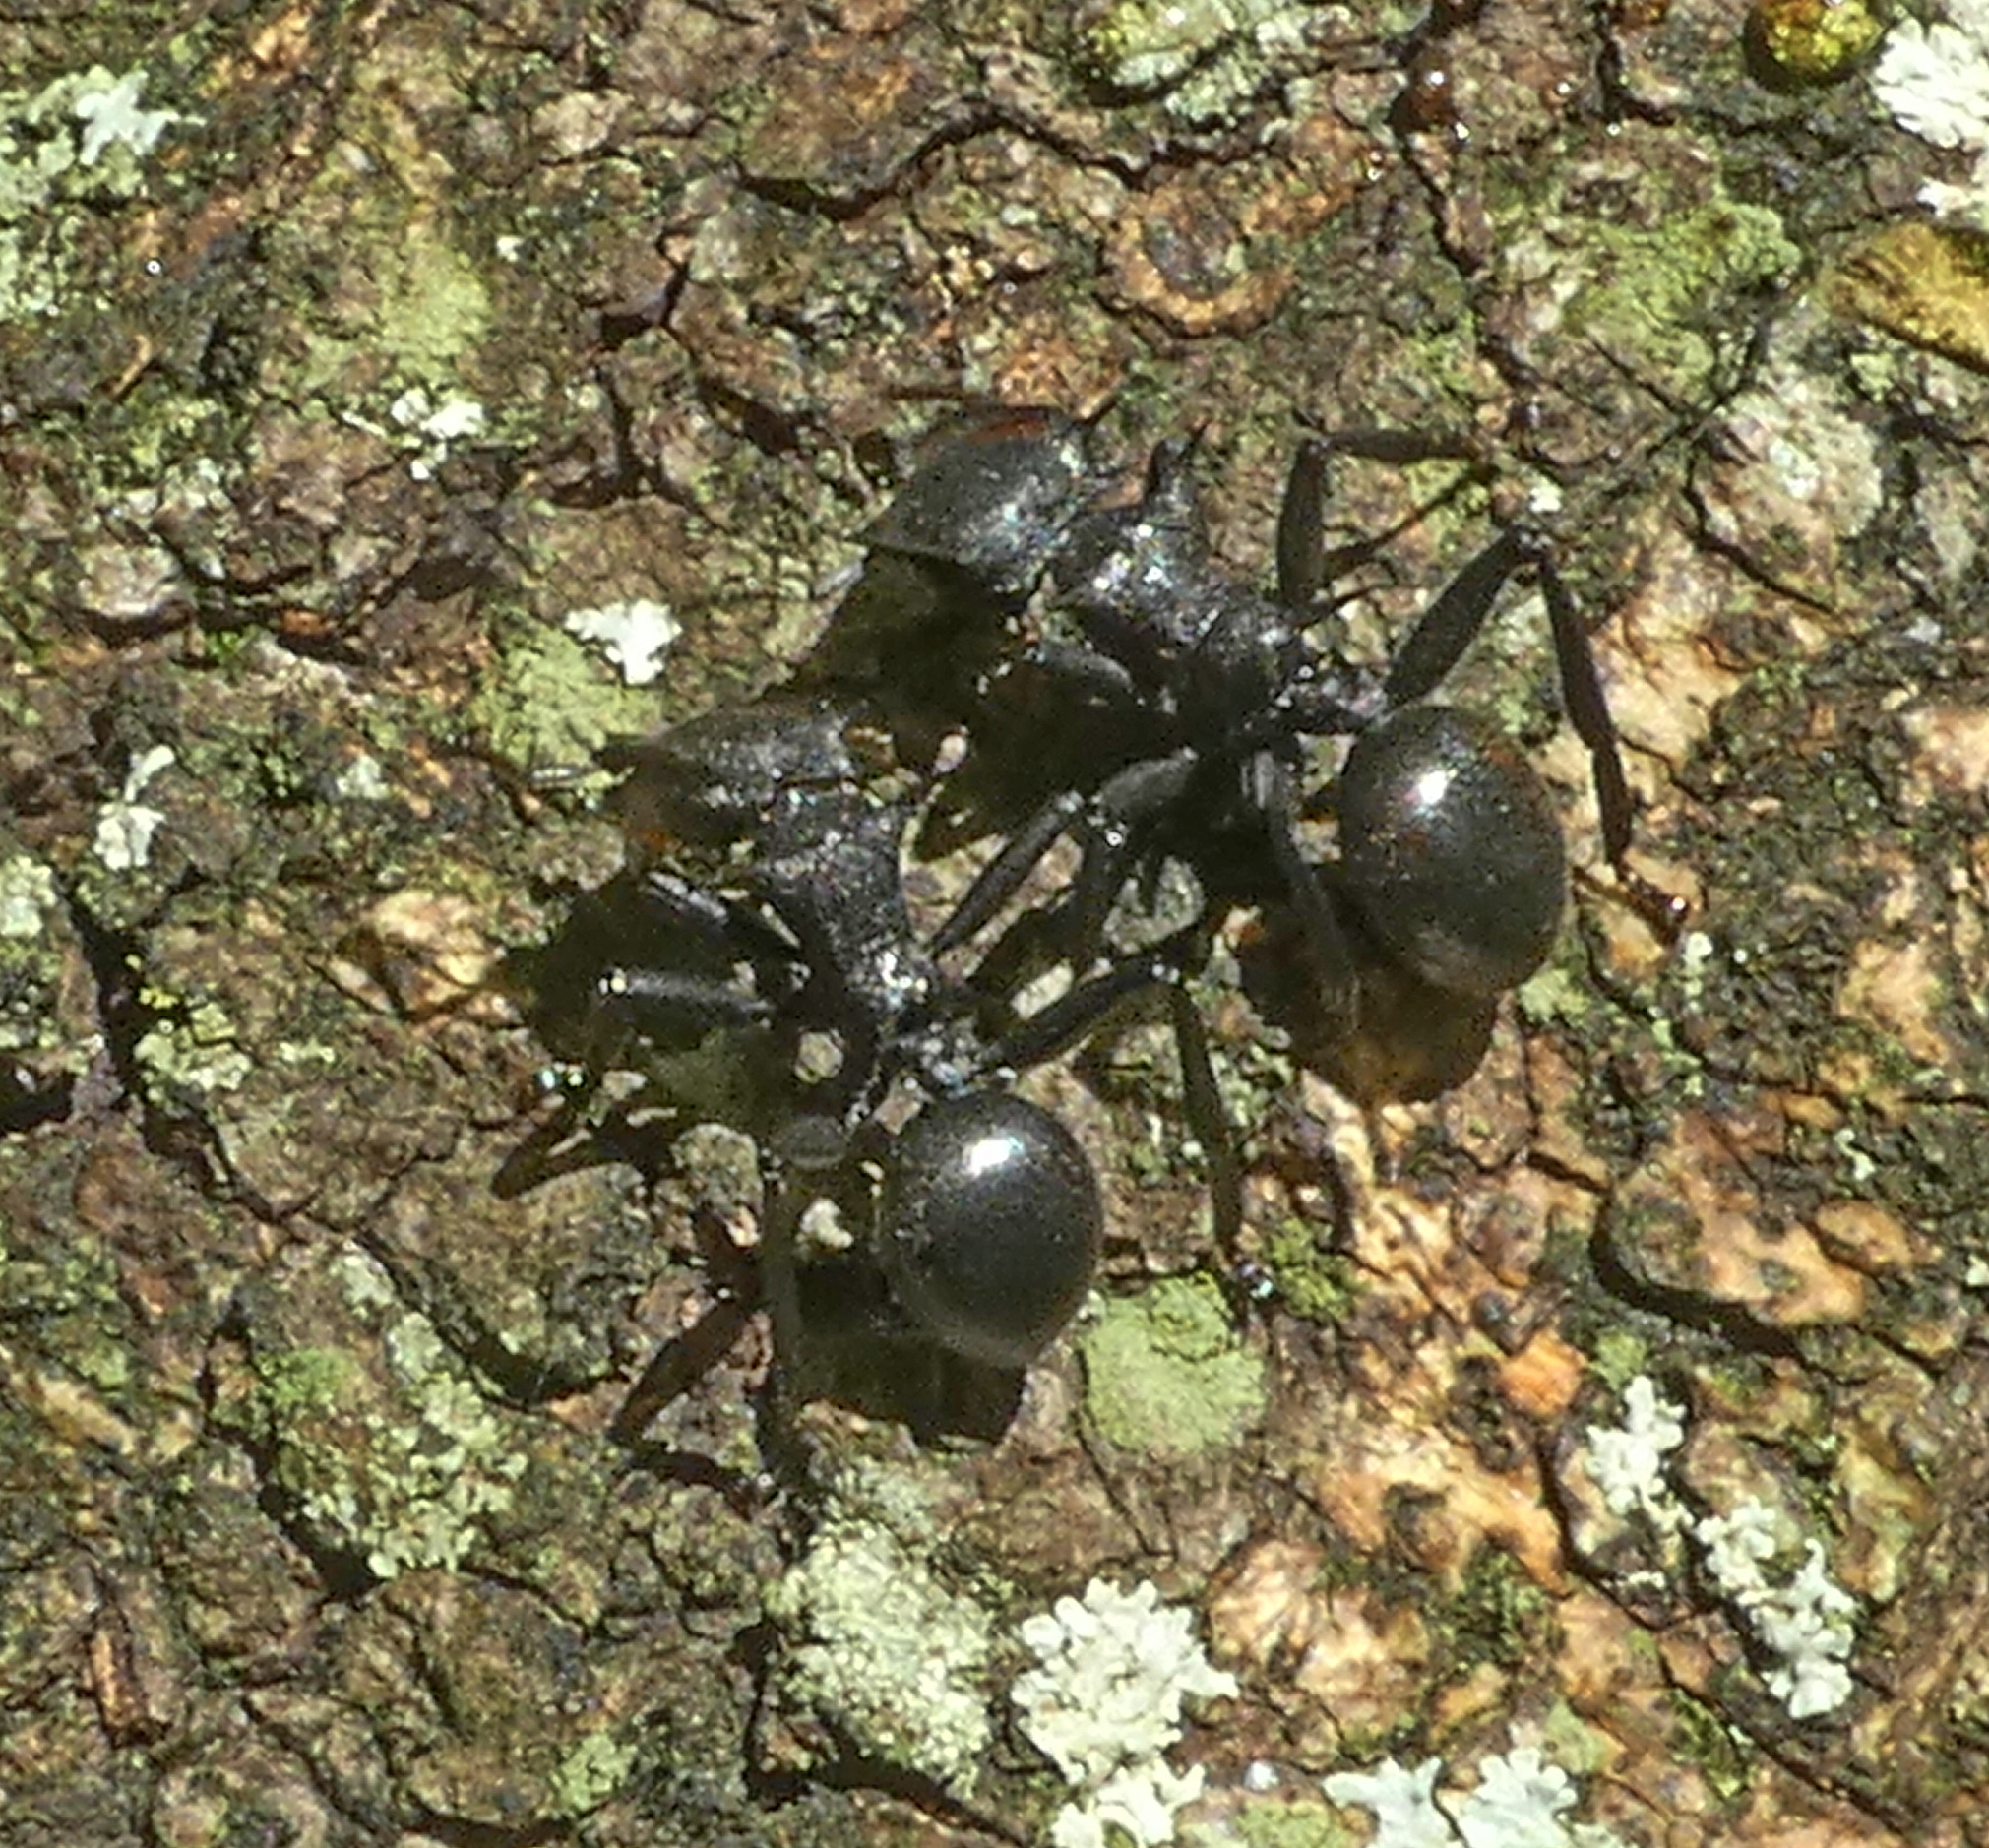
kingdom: Animalia
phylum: Arthropoda
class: Insecta
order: Hymenoptera
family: Formicidae
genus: Cephalotes
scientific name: Cephalotes atratus
